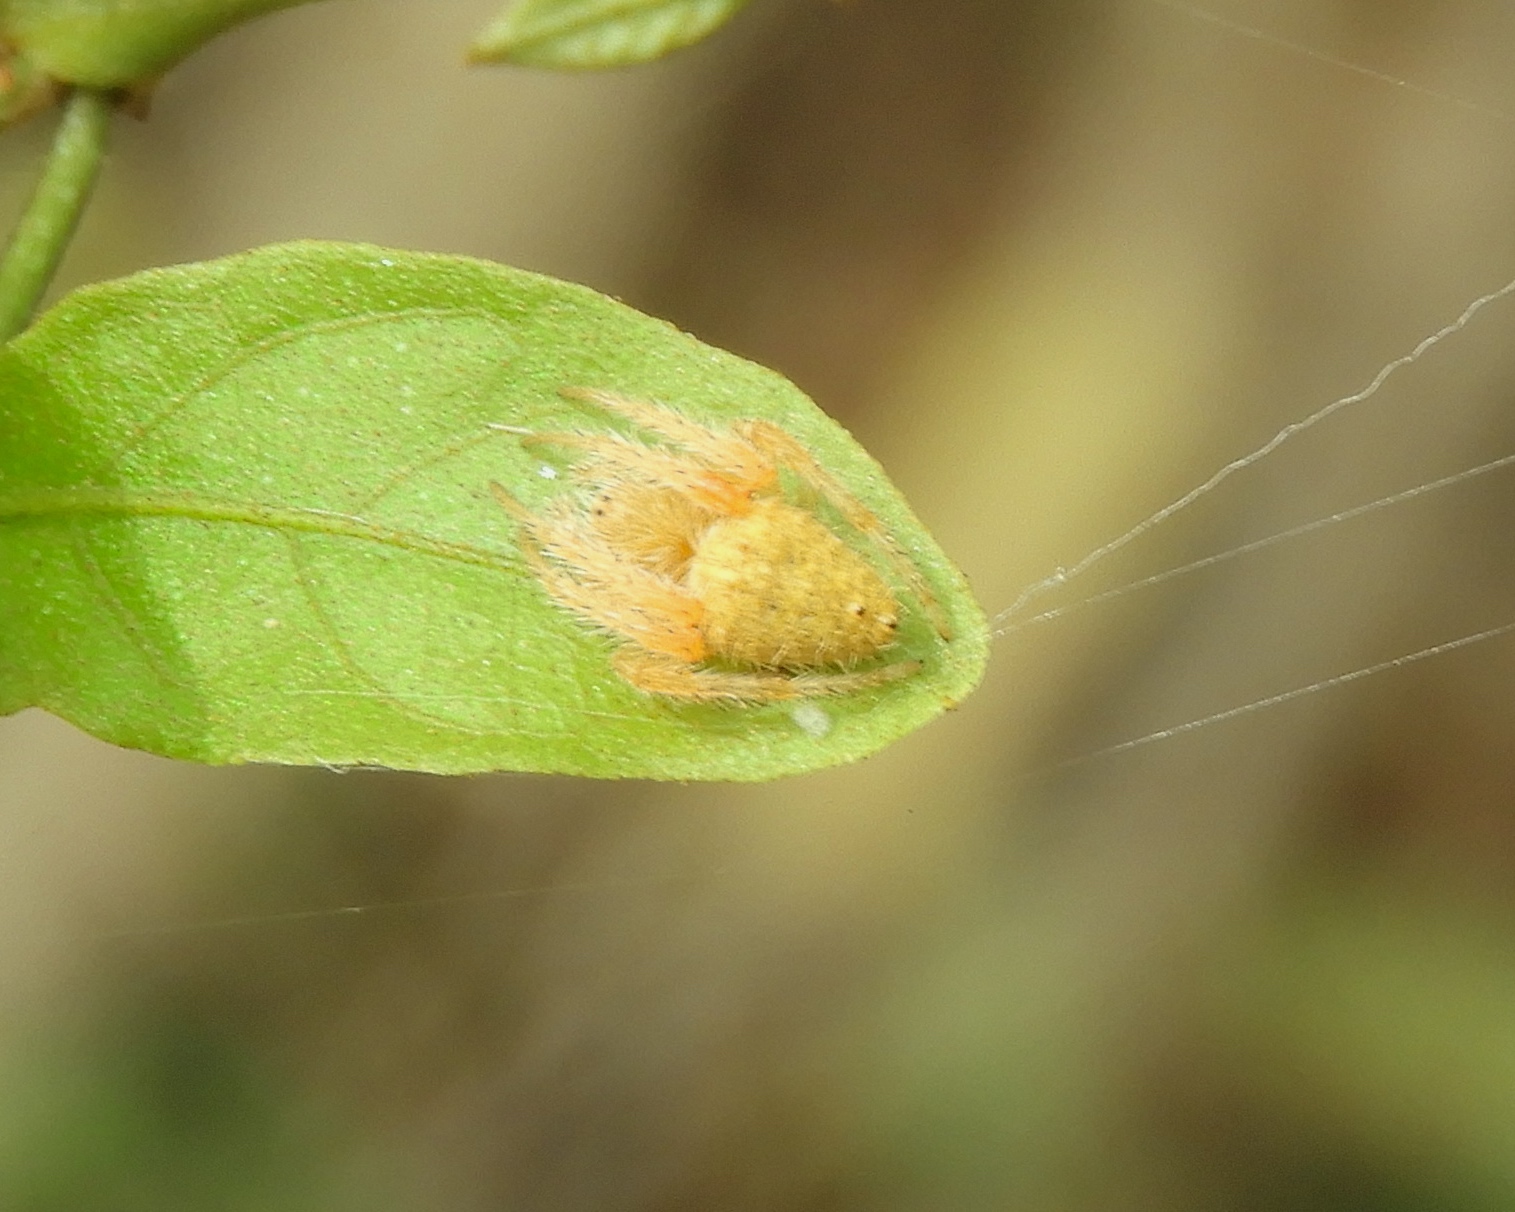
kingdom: Animalia
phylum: Arthropoda
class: Arachnida
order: Araneae
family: Araneidae
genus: Eriophora
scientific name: Eriophora
